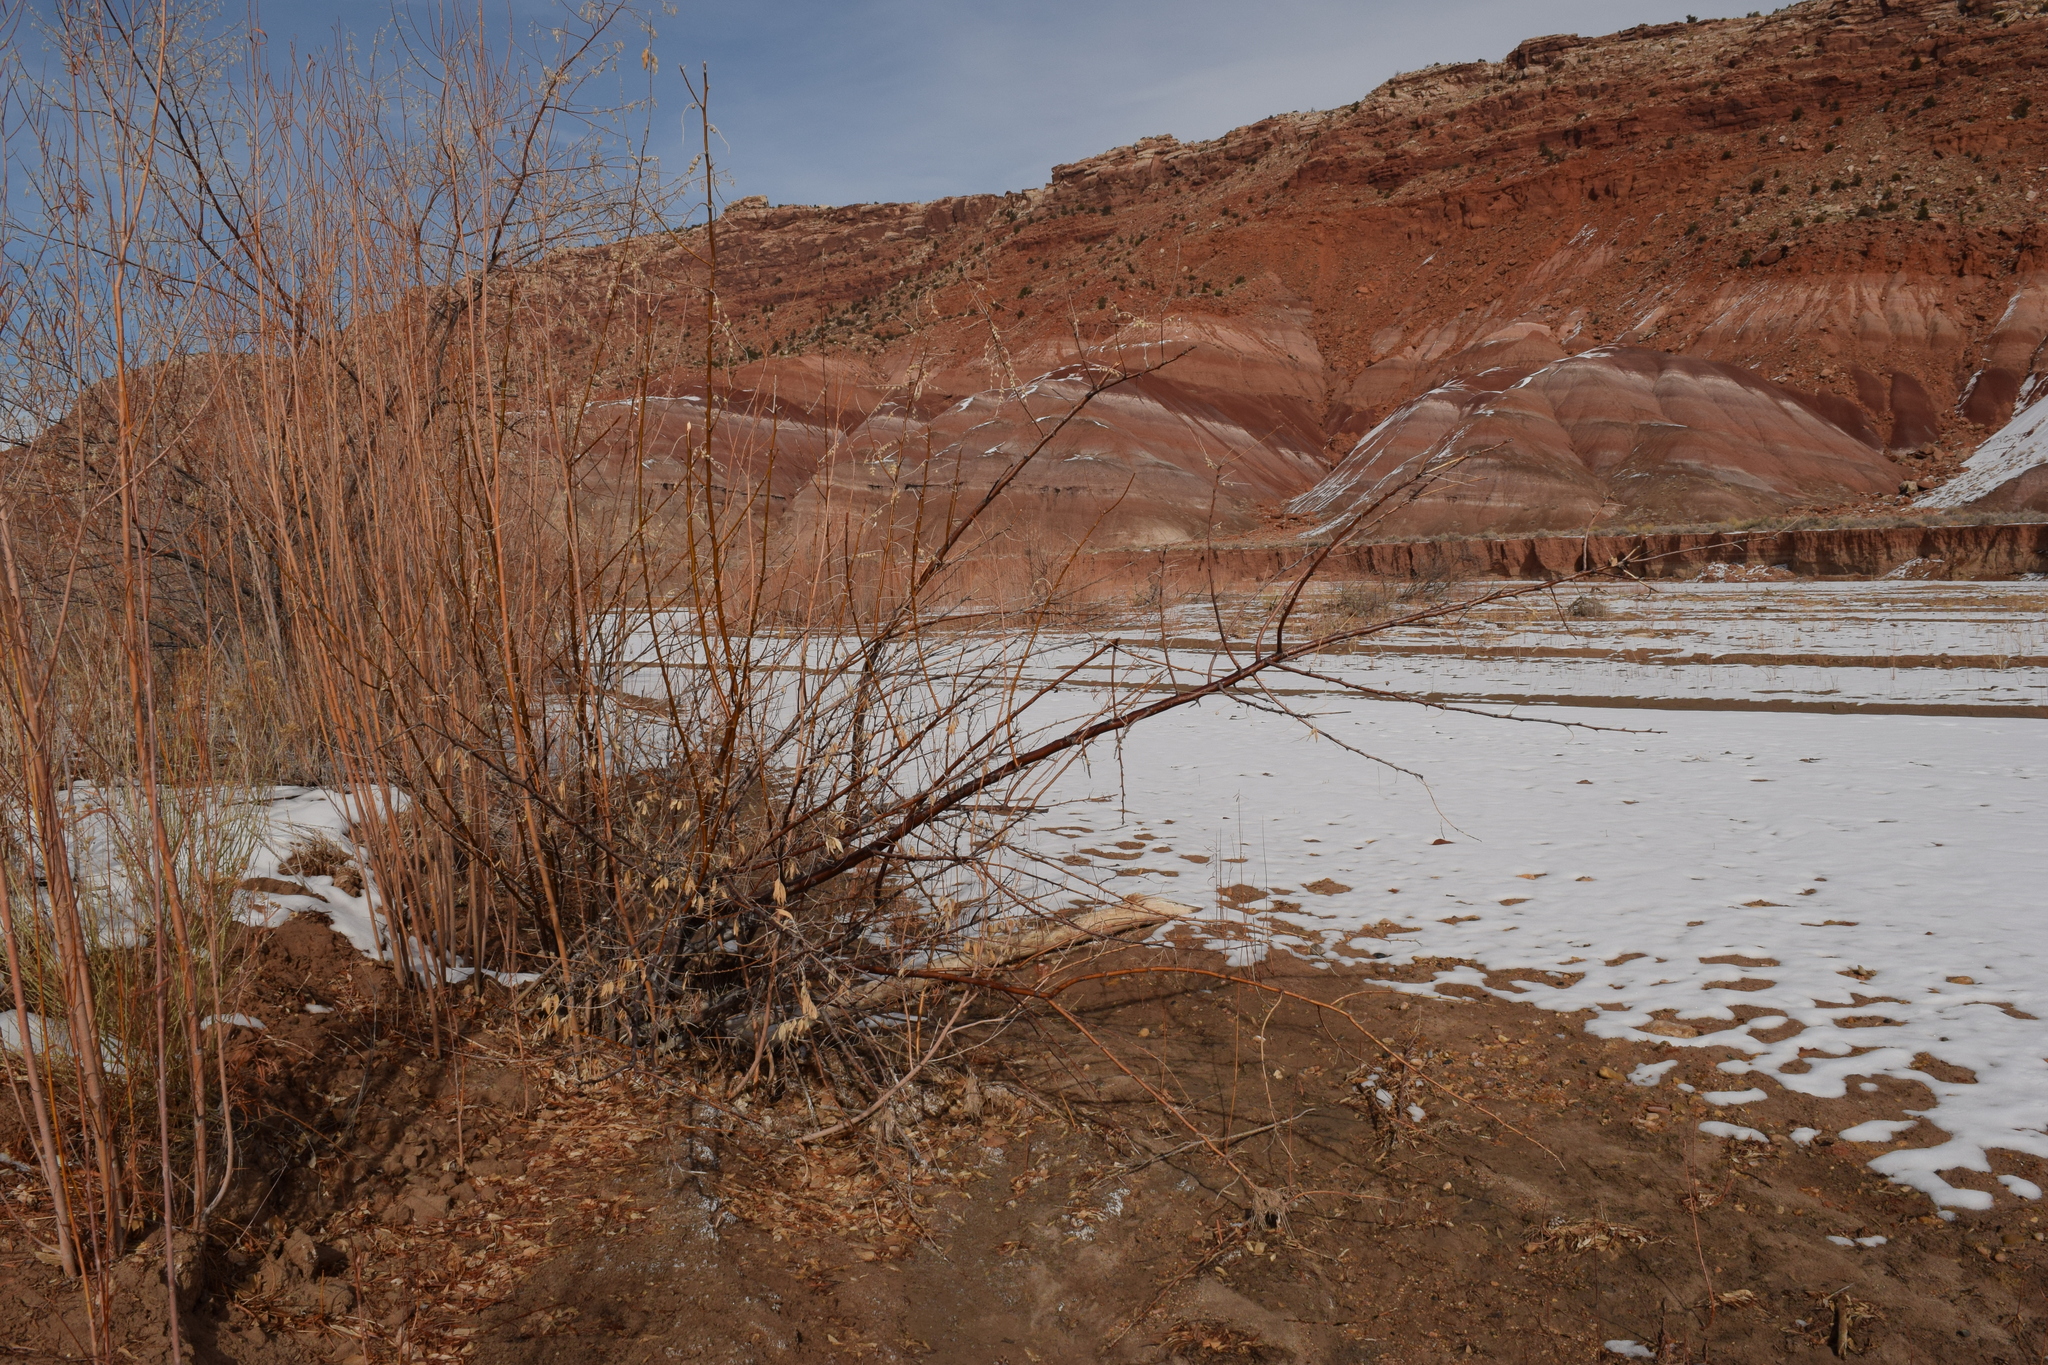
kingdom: Plantae
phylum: Tracheophyta
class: Magnoliopsida
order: Rosales
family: Elaeagnaceae
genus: Elaeagnus
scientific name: Elaeagnus angustifolia
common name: Russian olive
